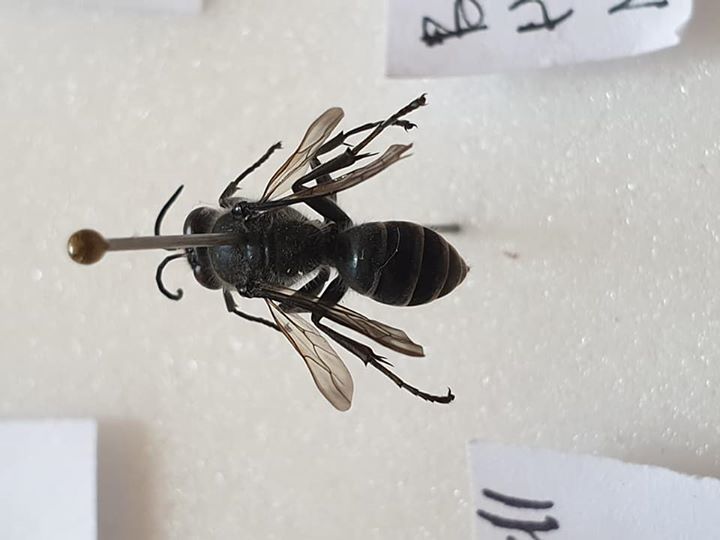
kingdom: Animalia
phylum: Arthropoda
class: Insecta
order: Hymenoptera
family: Crabronidae
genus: Pison
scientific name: Pison spinolae
